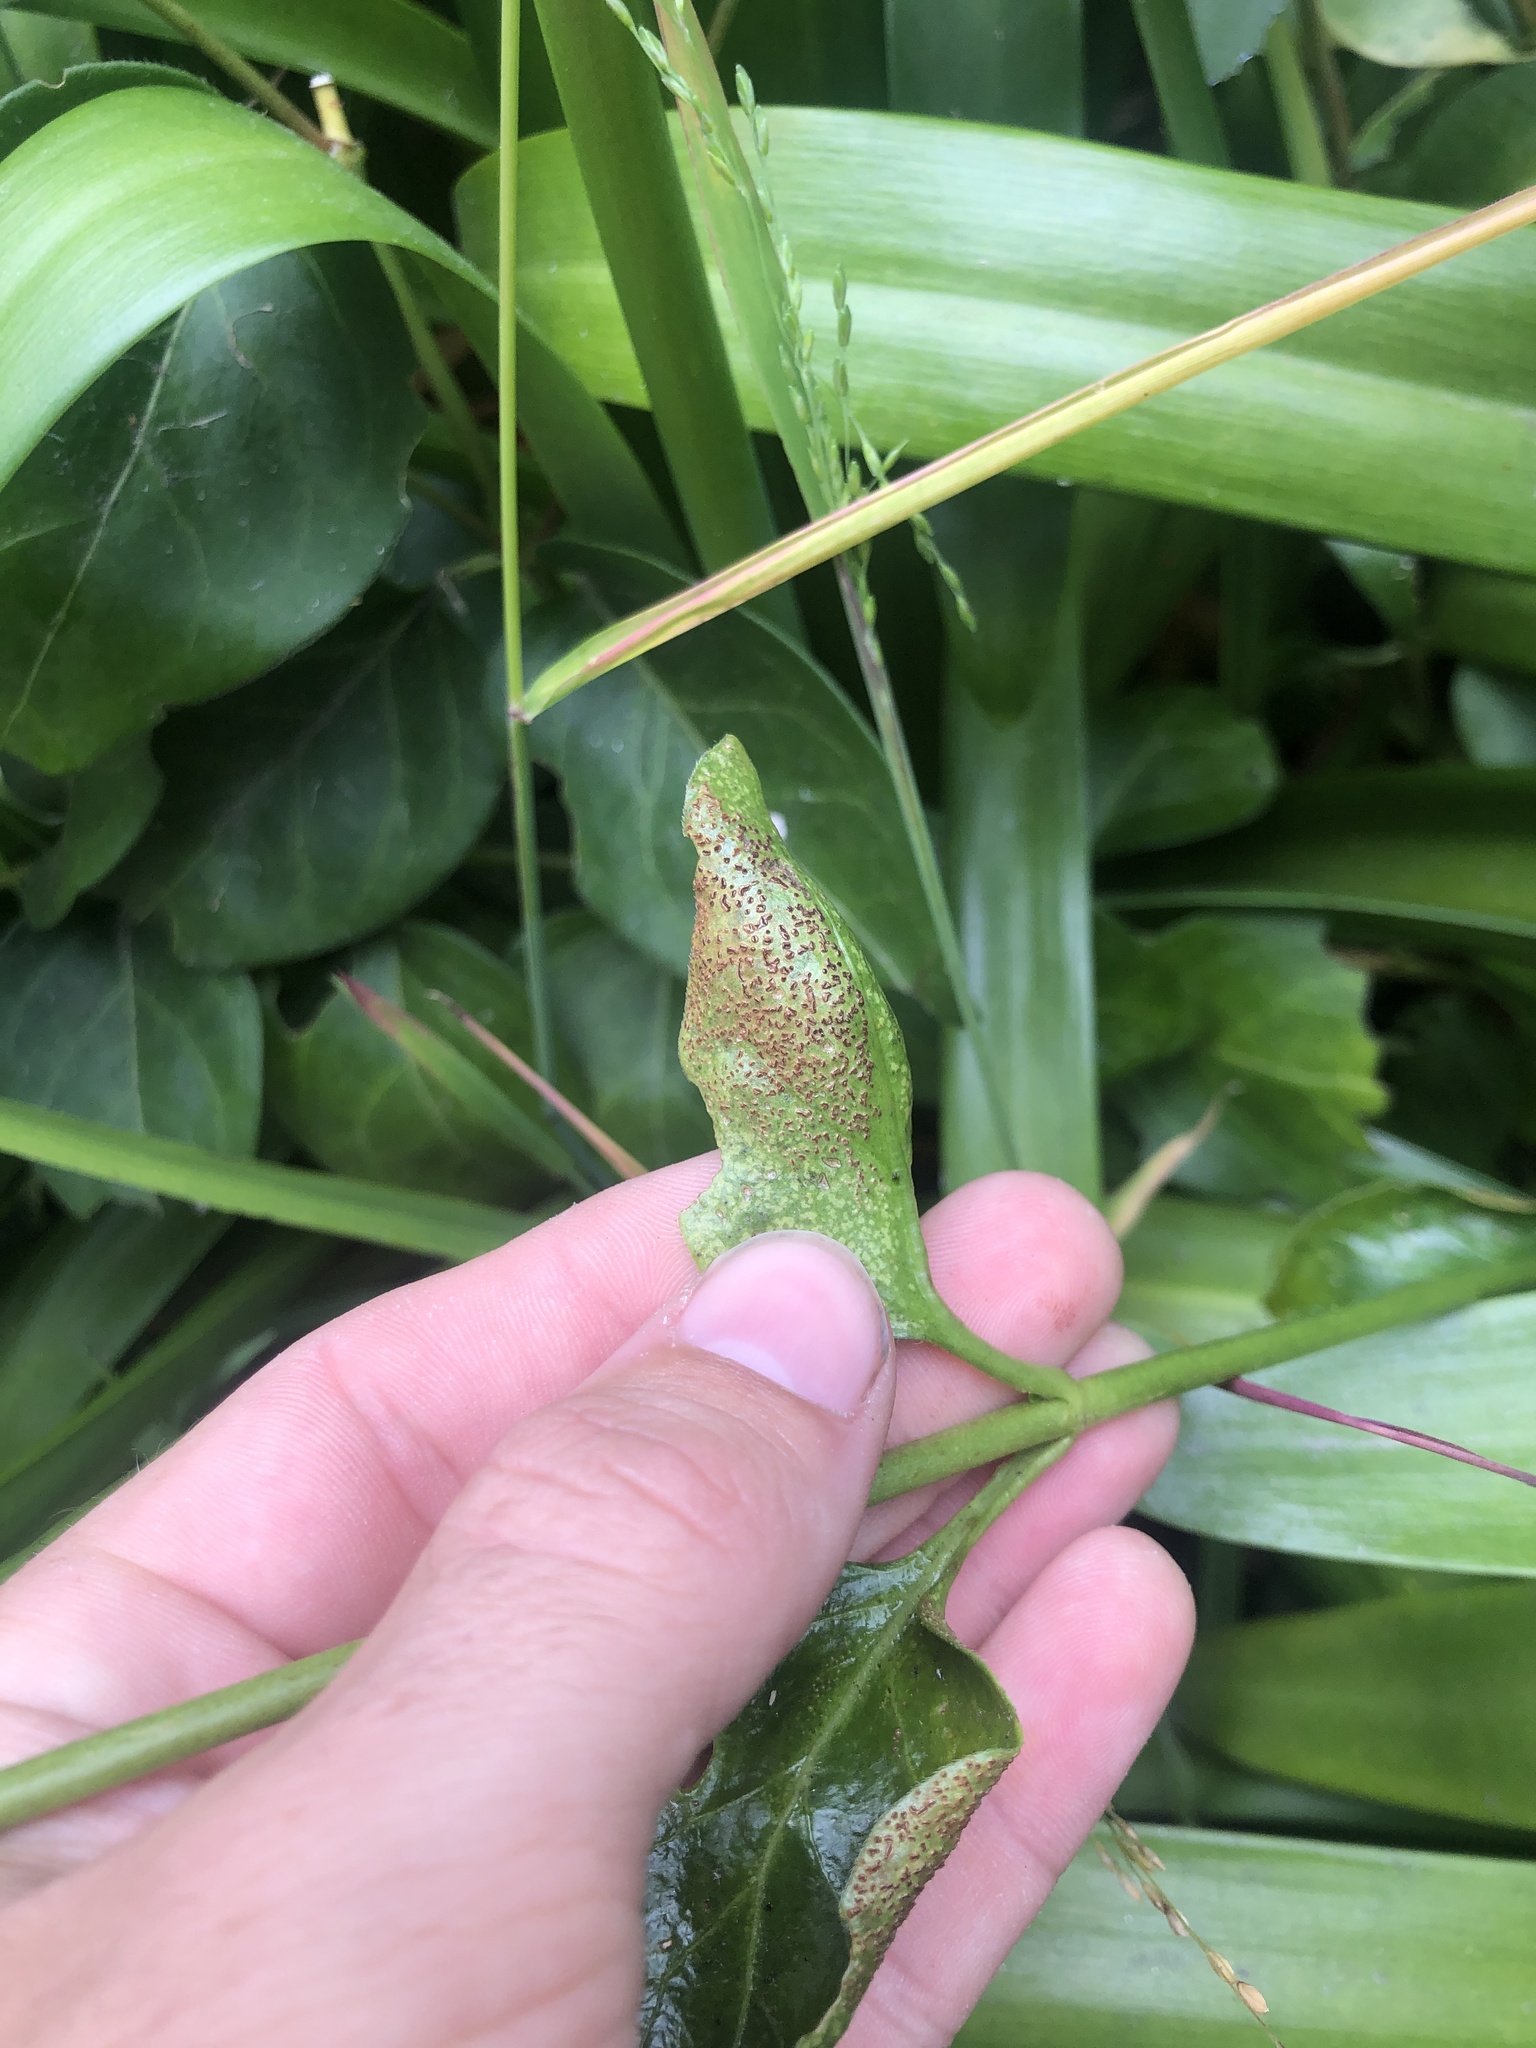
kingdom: Fungi
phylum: Basidiomycota
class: Pucciniomycetes
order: Pucciniales
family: Pucciniaceae
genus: Puccinia
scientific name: Puccinia vincae
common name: Periwinkle rust
